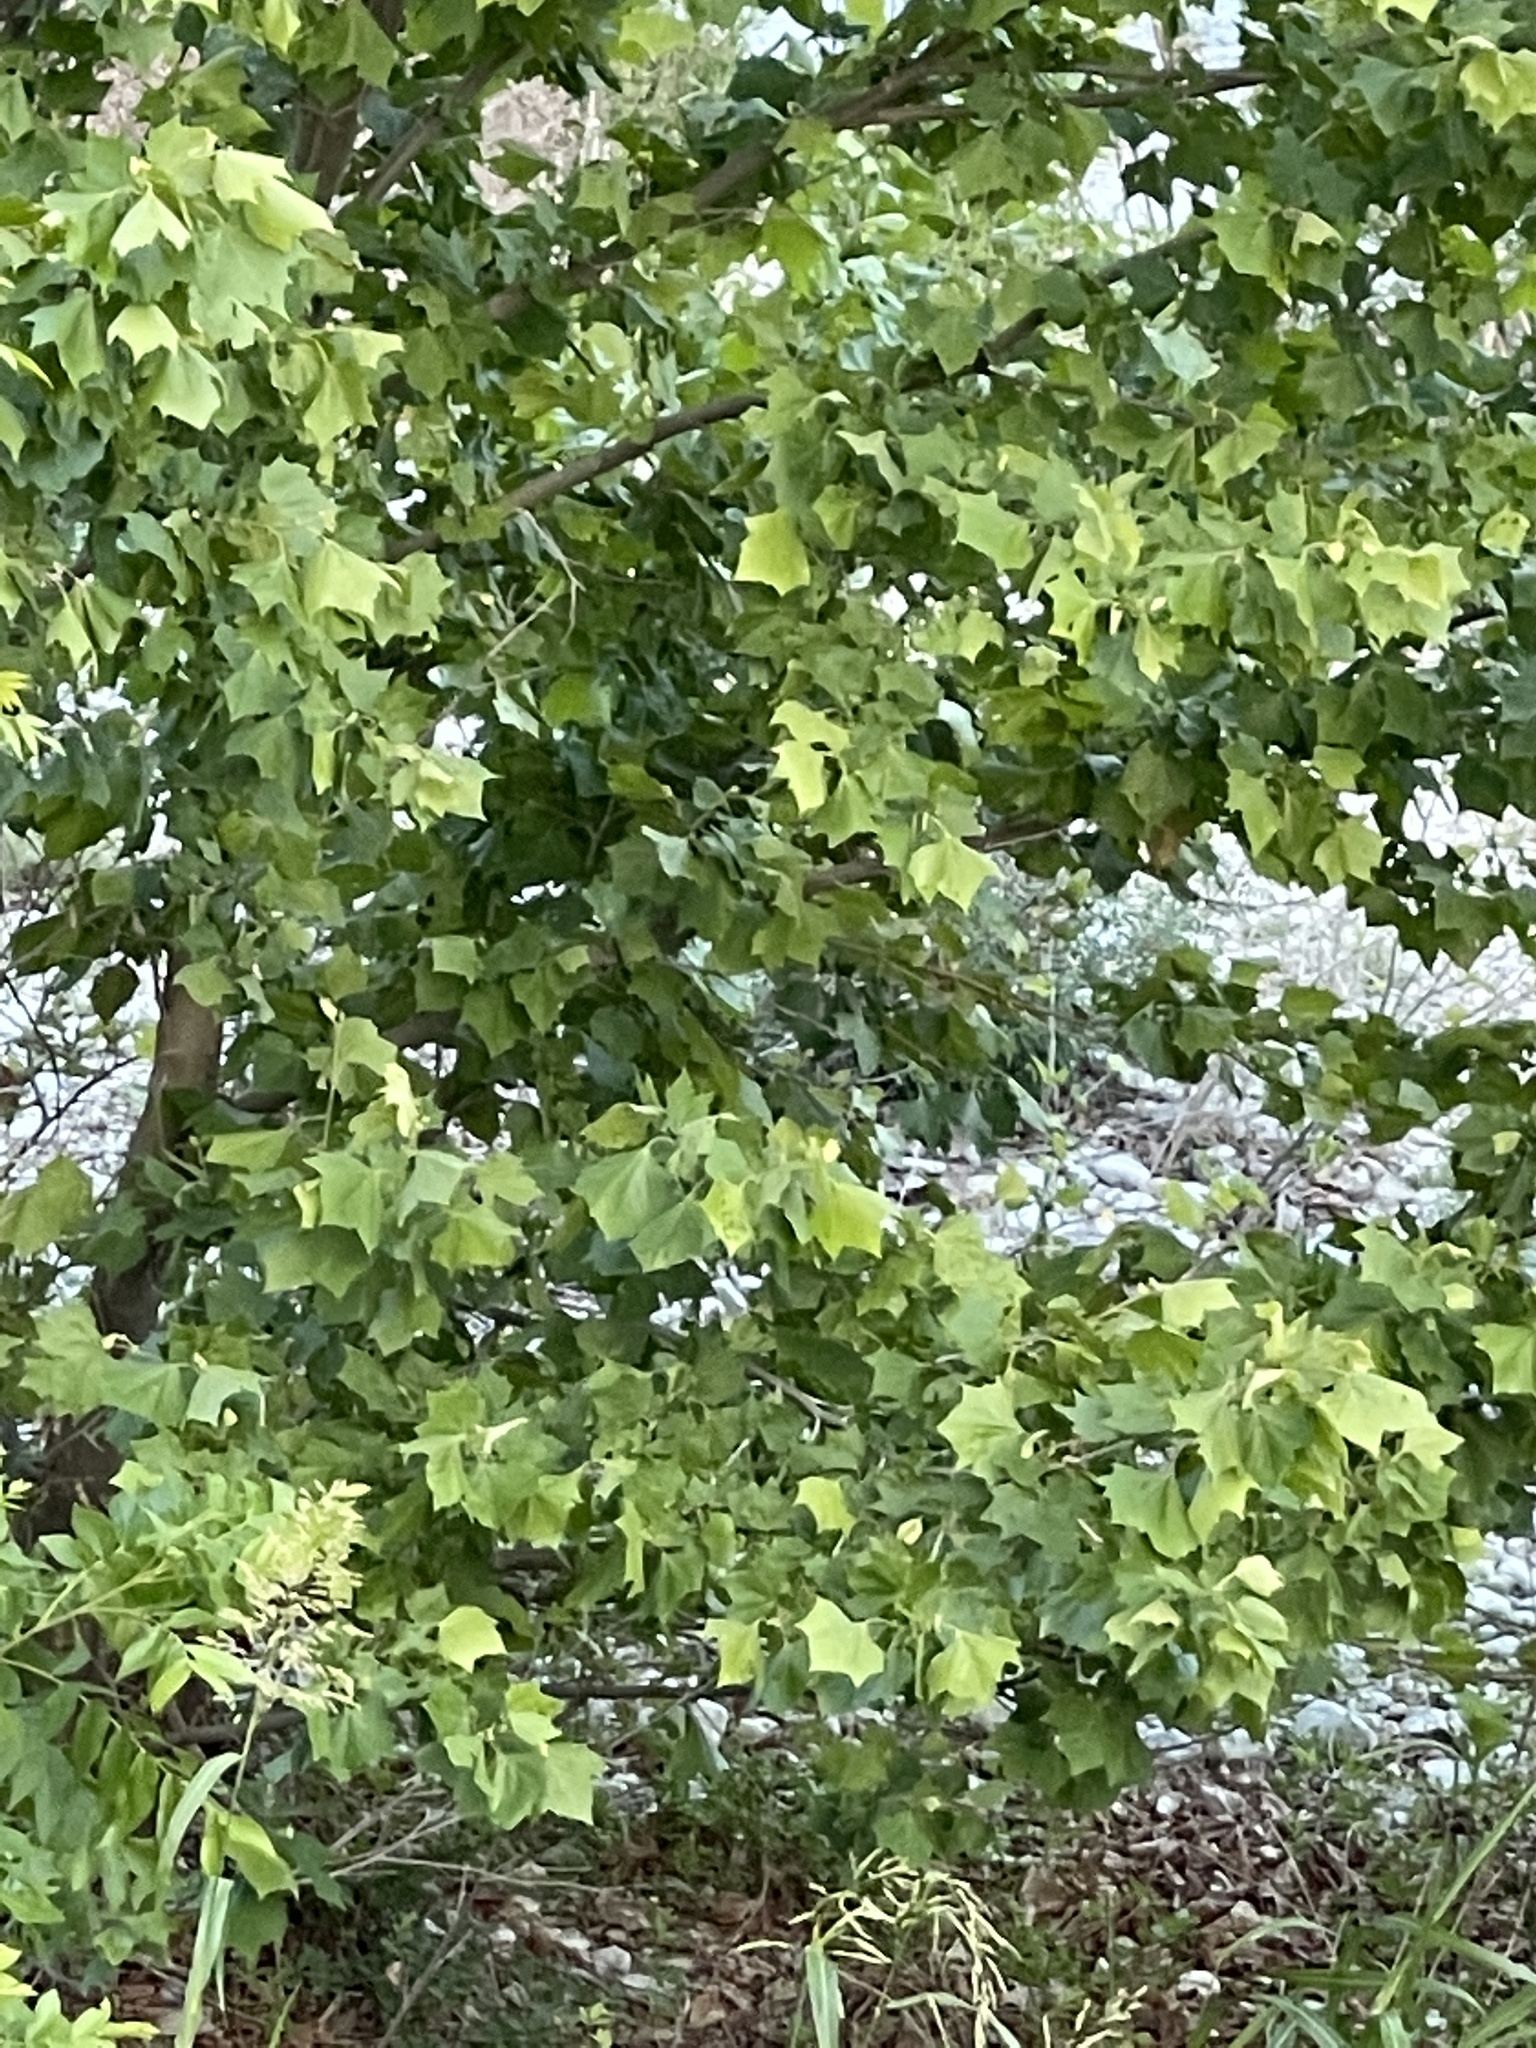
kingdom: Plantae
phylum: Tracheophyta
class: Magnoliopsida
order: Proteales
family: Platanaceae
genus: Platanus
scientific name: Platanus occidentalis
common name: American sycamore
